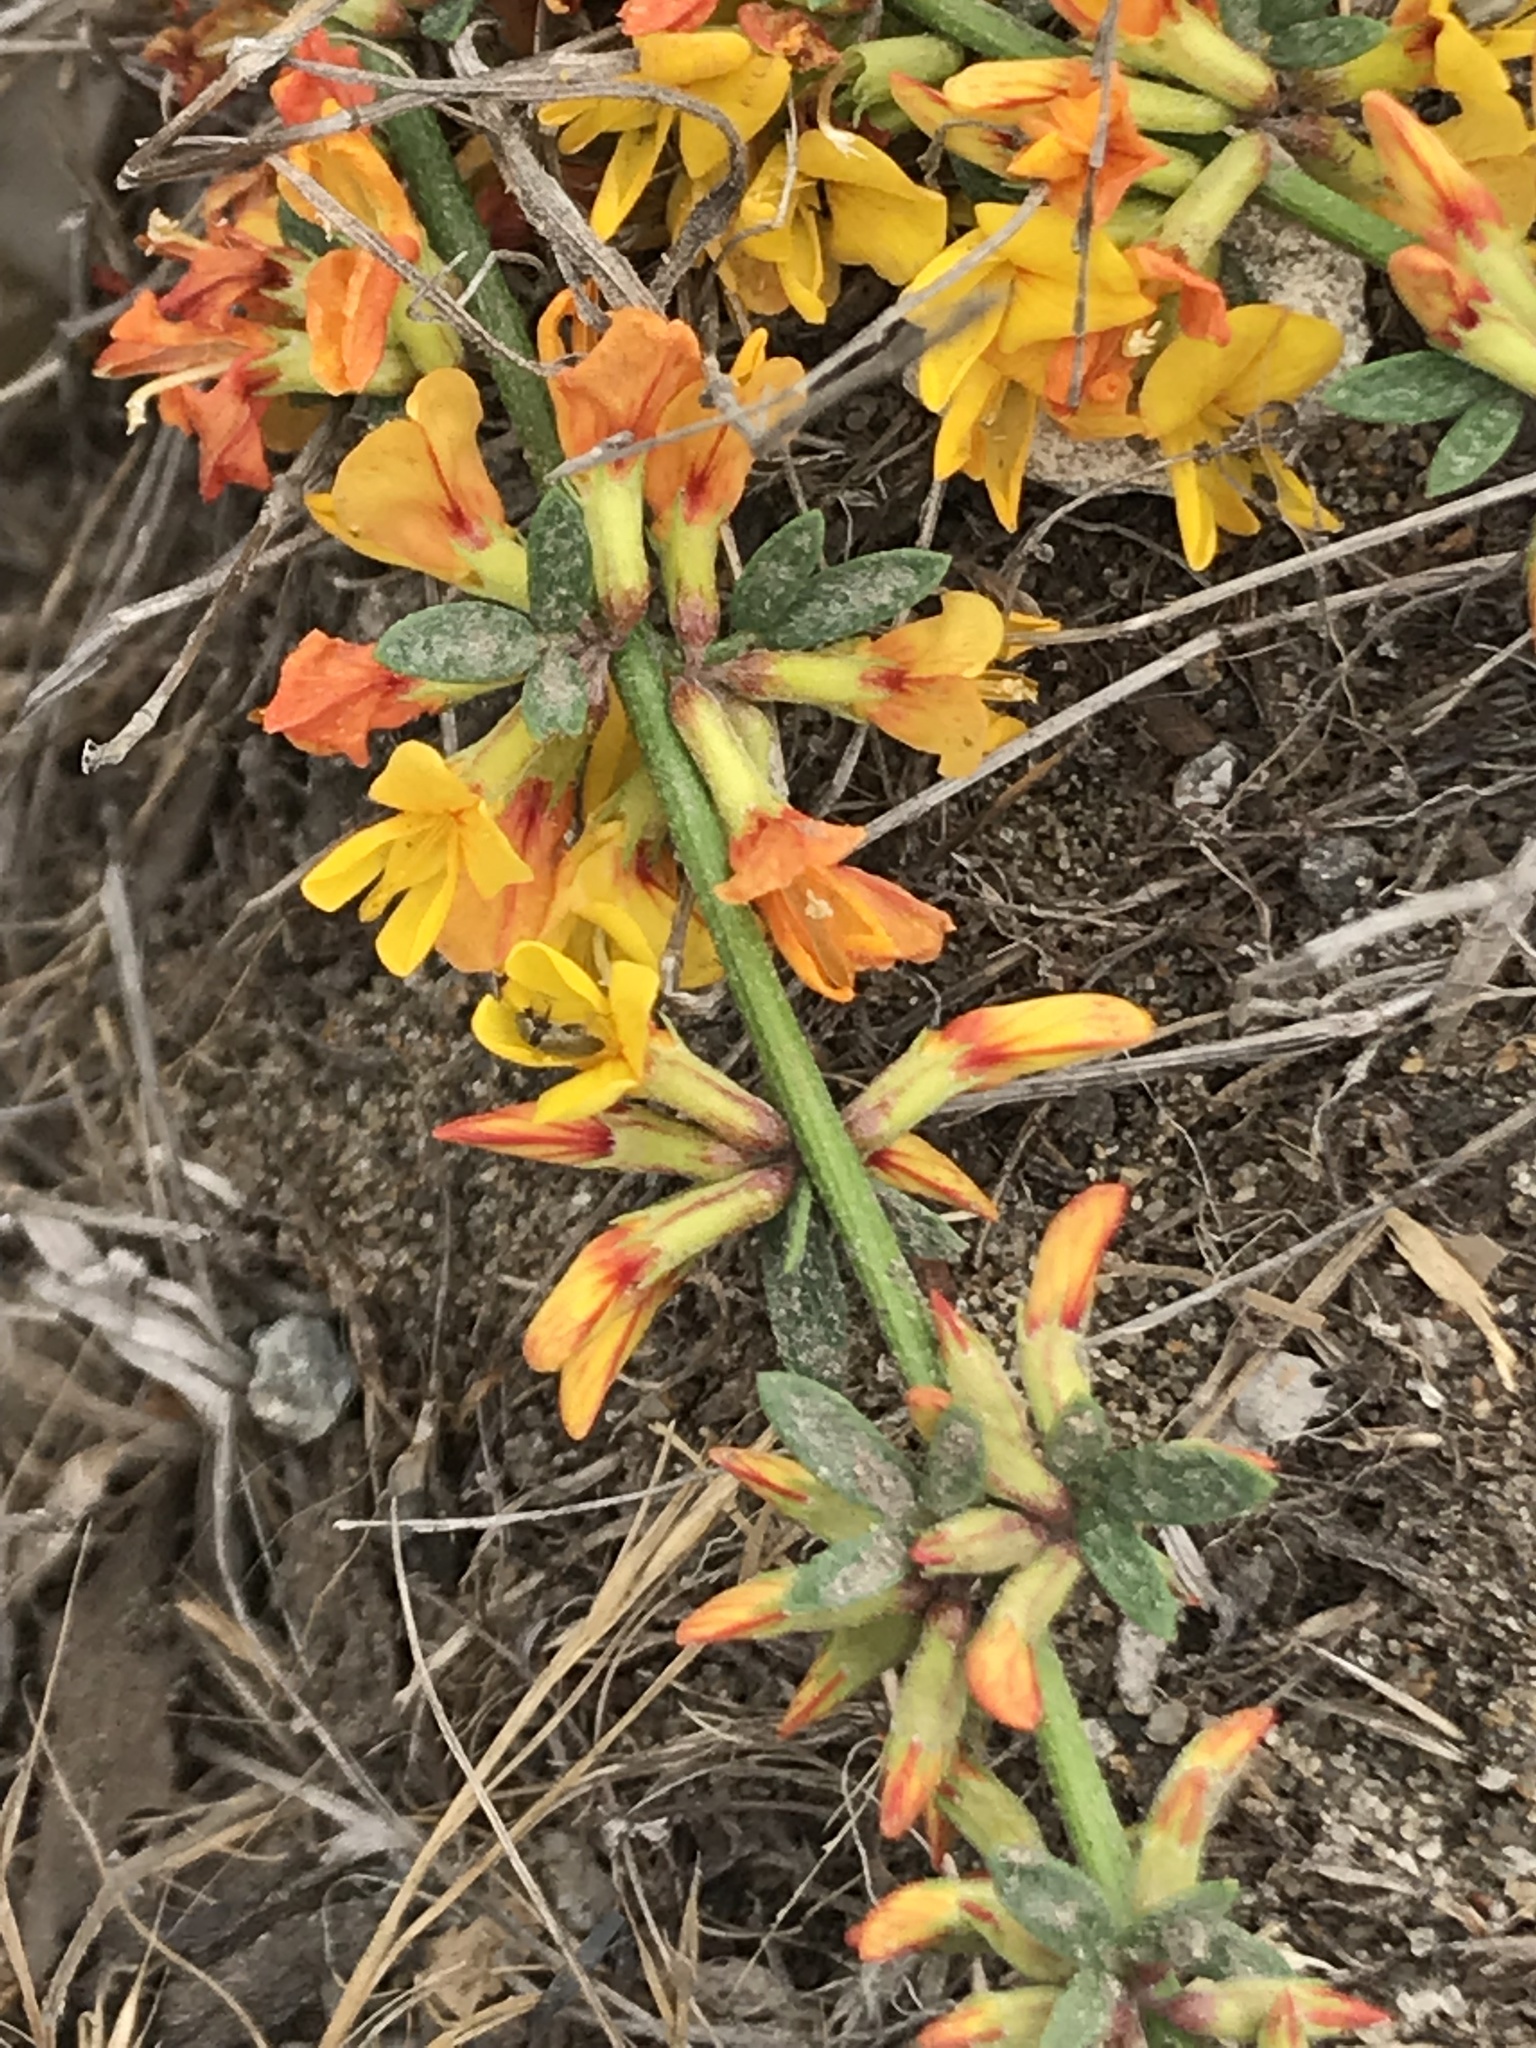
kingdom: Plantae
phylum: Tracheophyta
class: Magnoliopsida
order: Fabales
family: Fabaceae
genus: Acmispon
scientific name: Acmispon glaber
